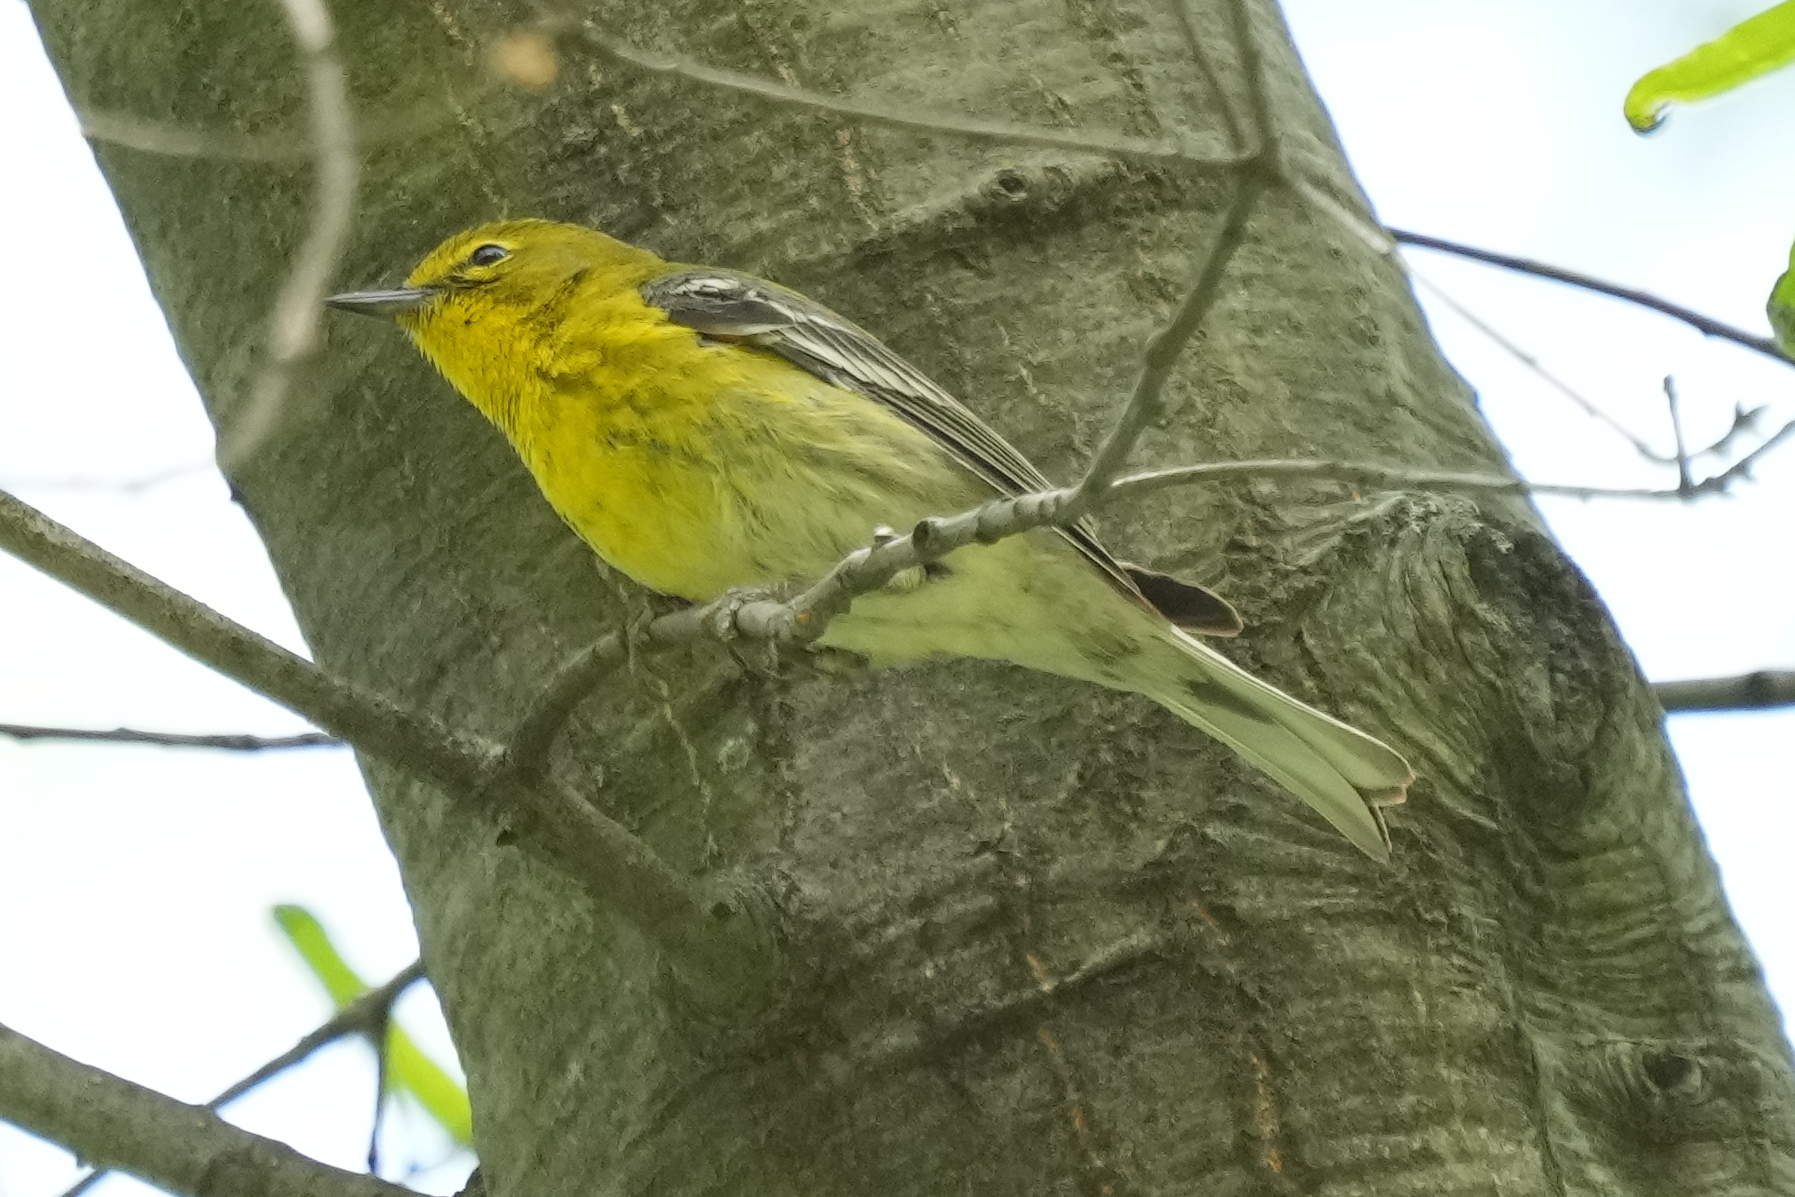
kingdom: Animalia
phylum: Chordata
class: Aves
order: Passeriformes
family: Parulidae
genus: Setophaga
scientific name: Setophaga pinus
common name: Pine warbler
